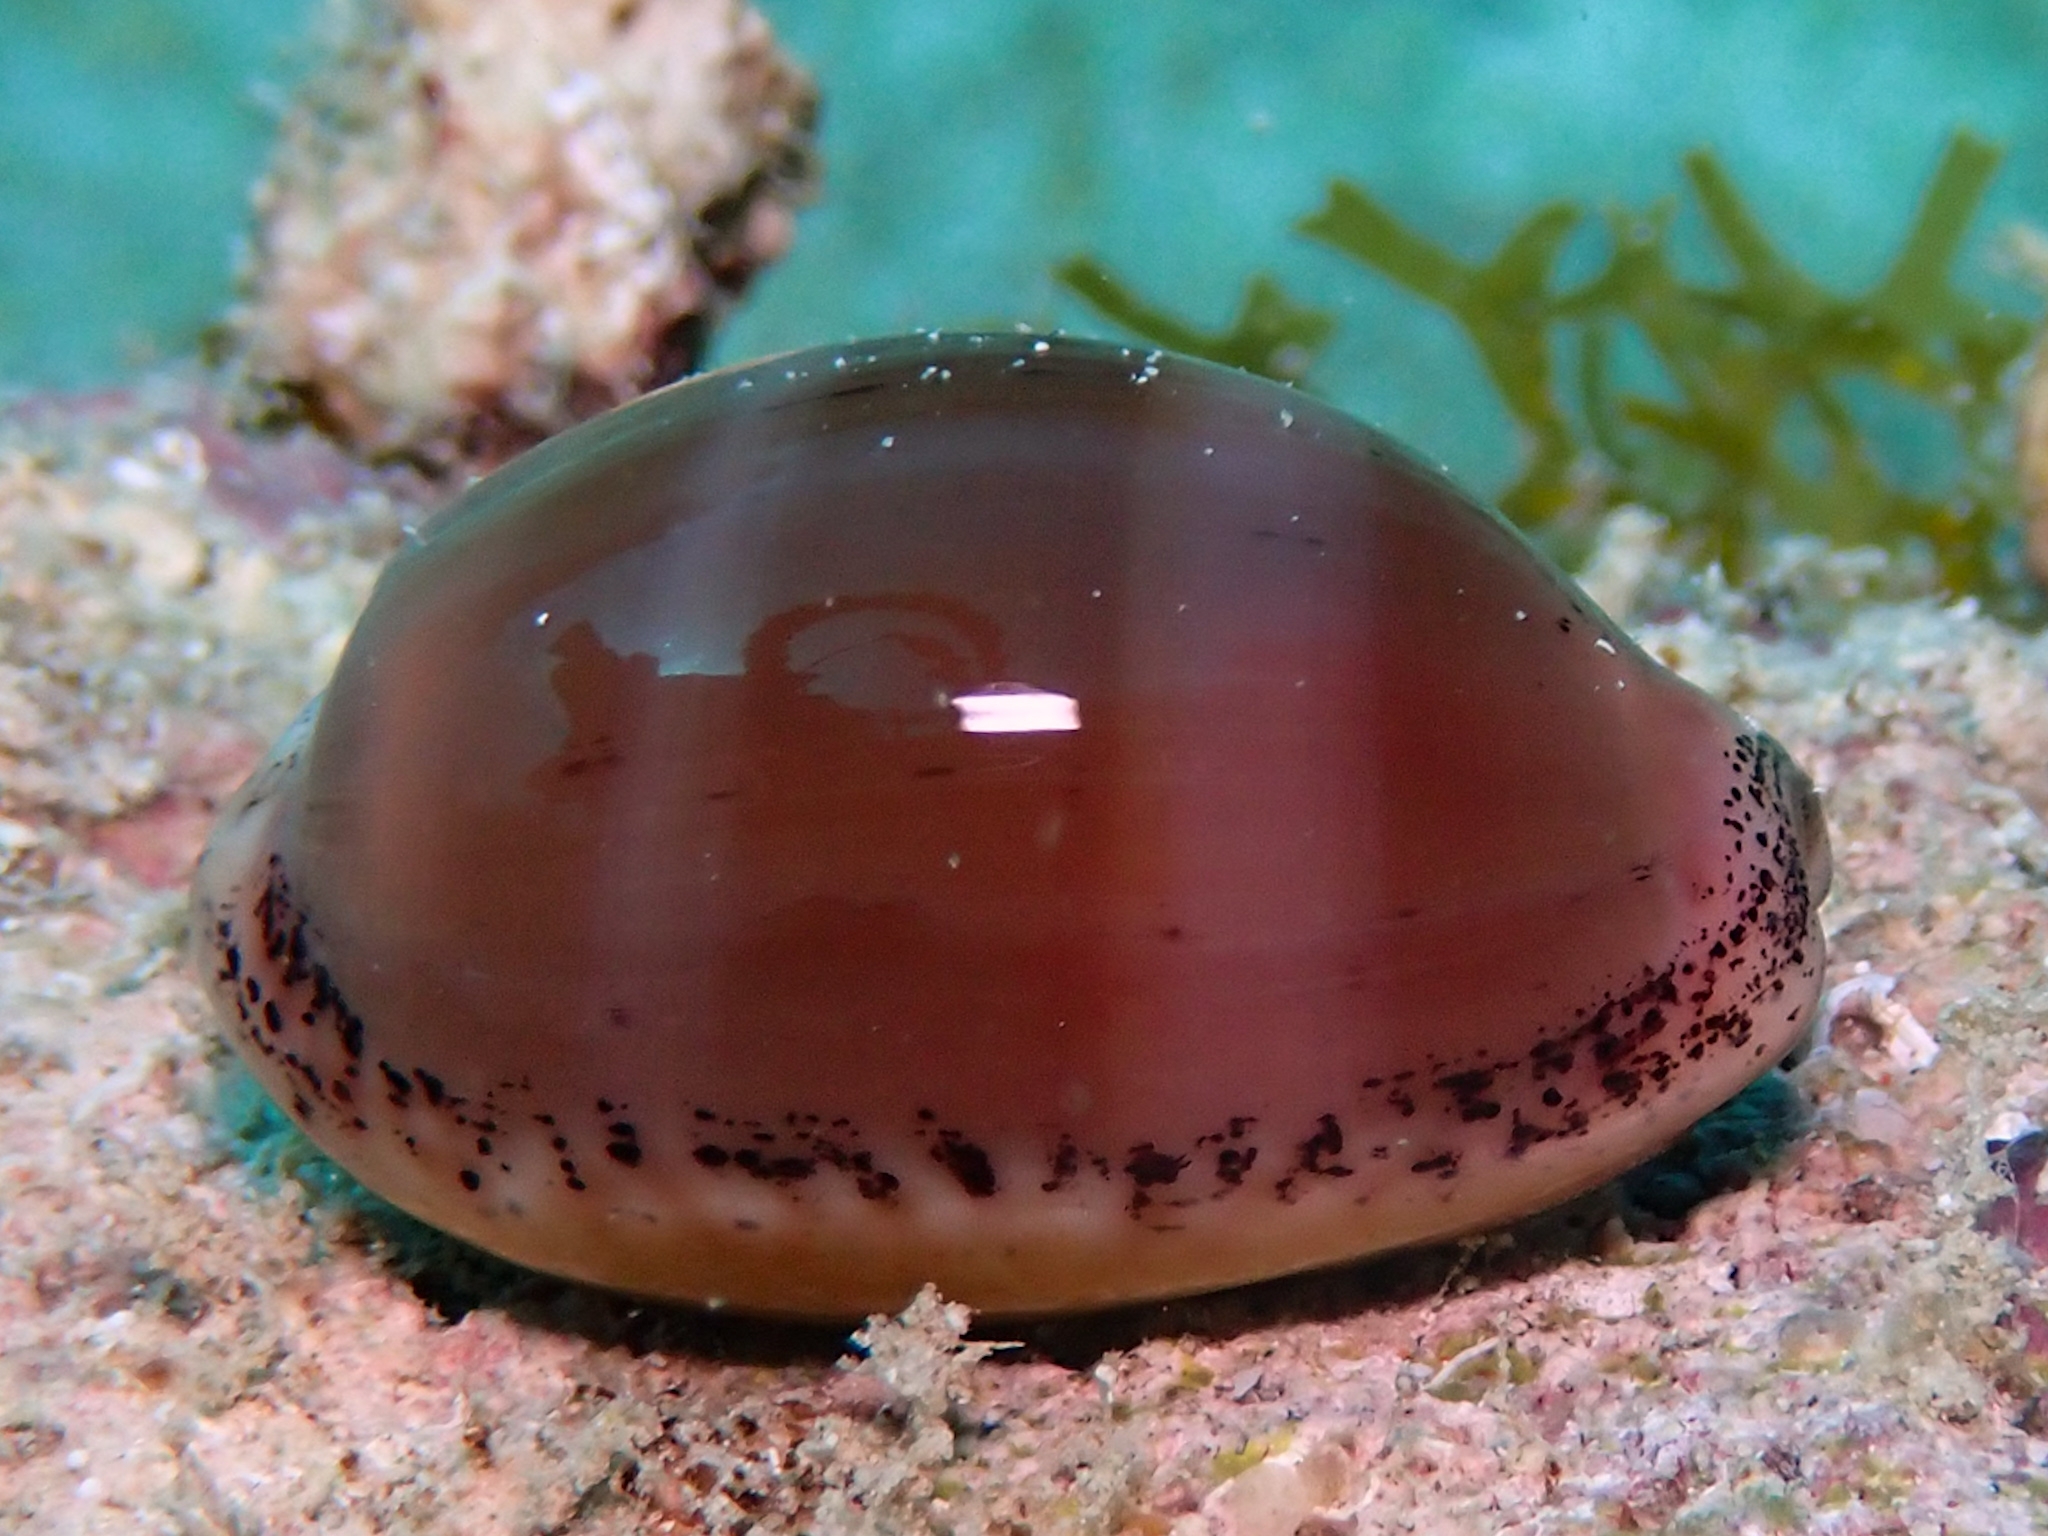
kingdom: Animalia
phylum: Mollusca
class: Gastropoda
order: Littorinimorpha
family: Cypraeidae
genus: Luria
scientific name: Luria cinerea
